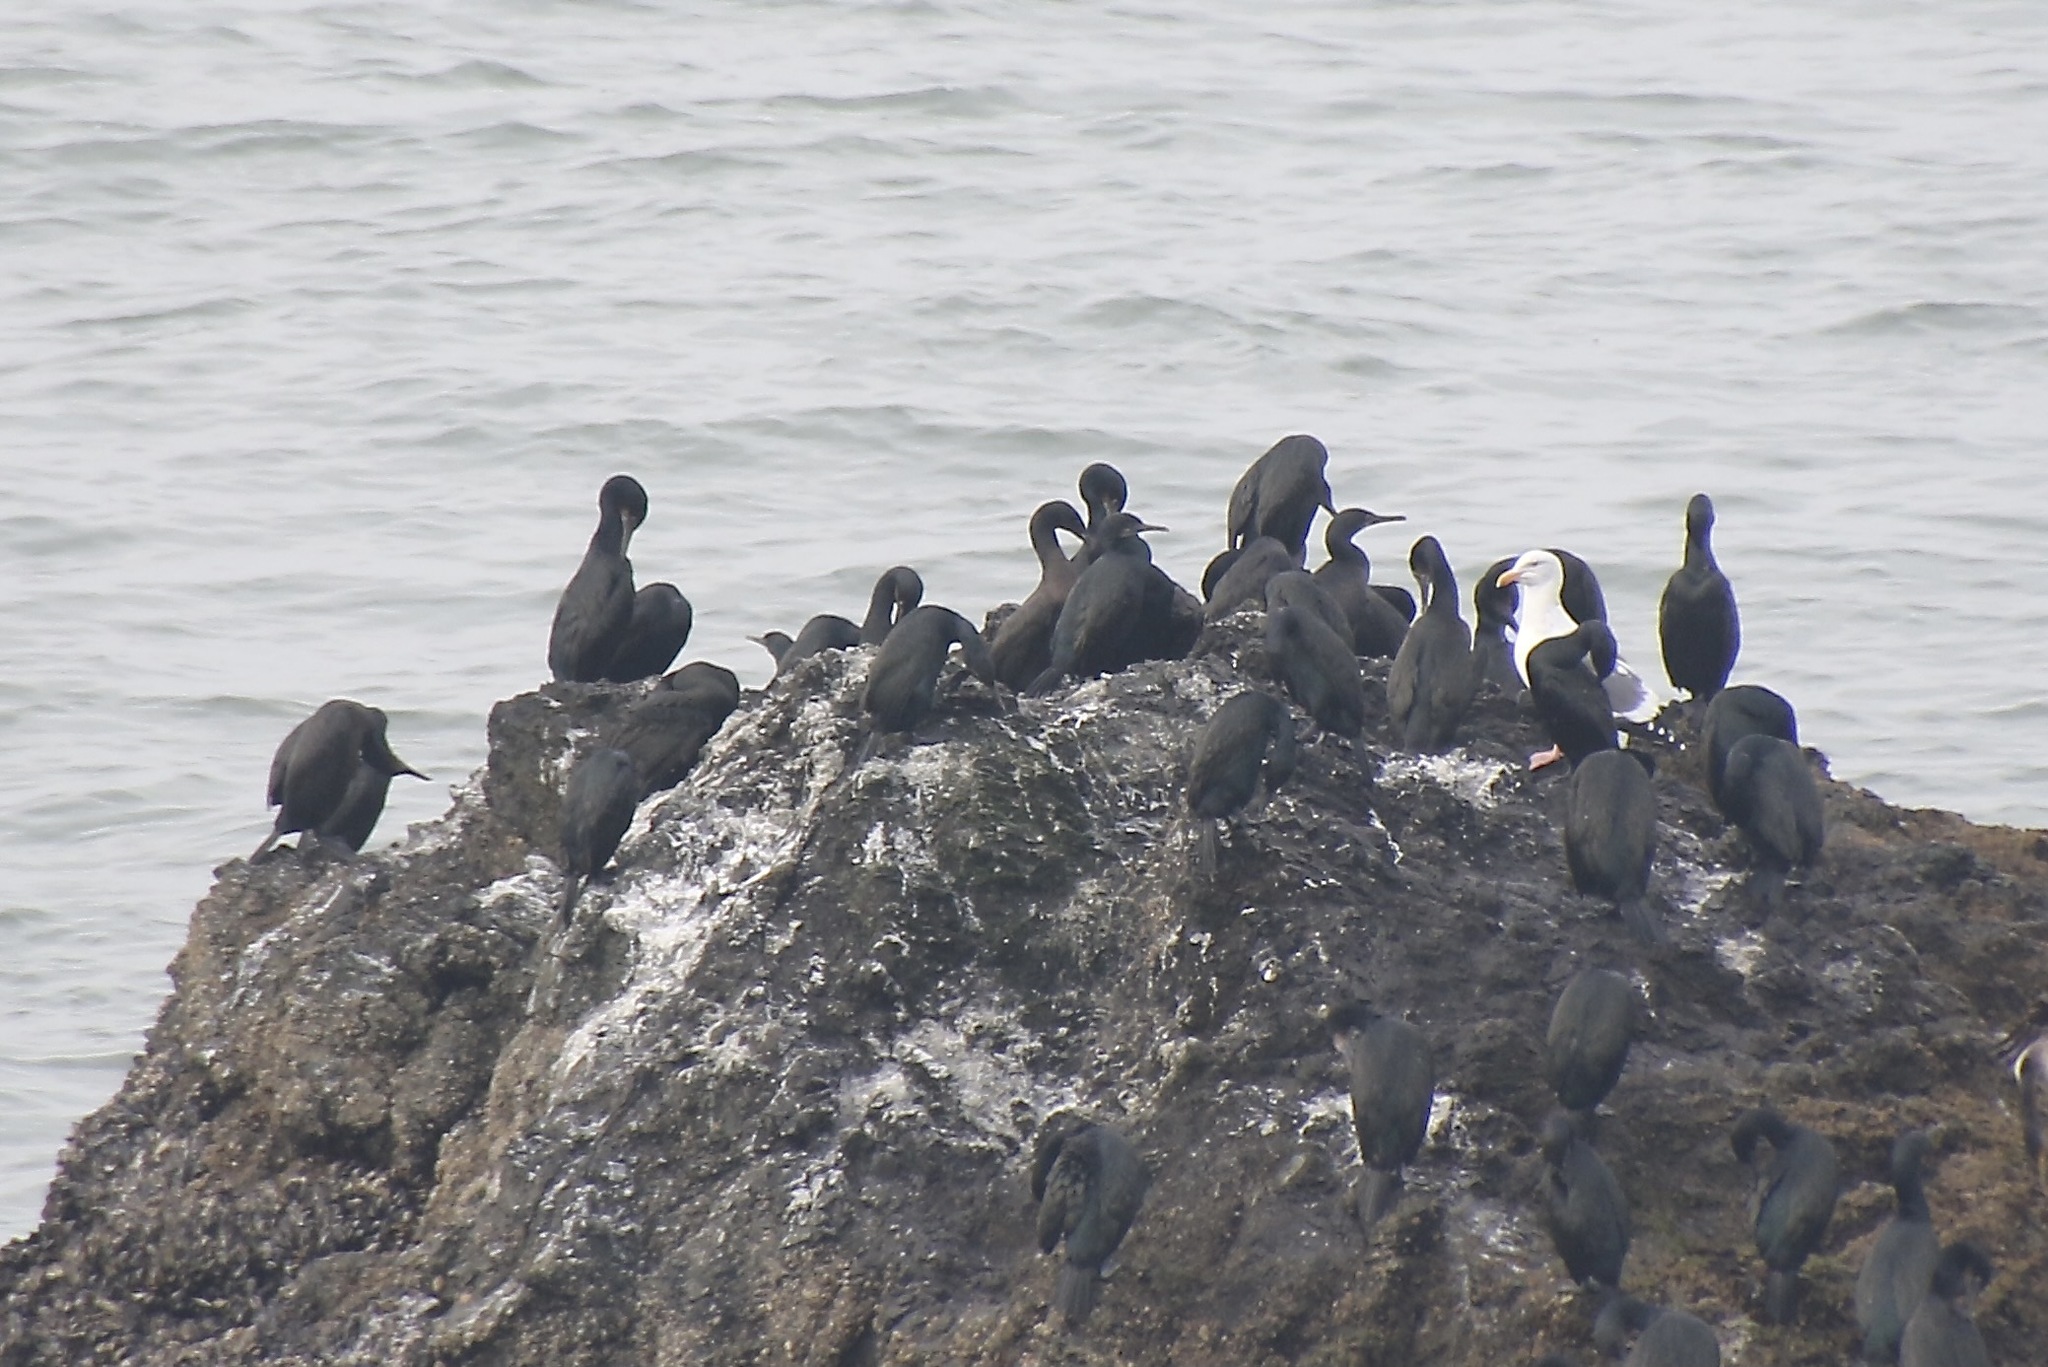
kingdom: Animalia
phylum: Chordata
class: Aves
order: Suliformes
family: Phalacrocoracidae
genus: Urile
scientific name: Urile penicillatus
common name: Brandt's cormorant
